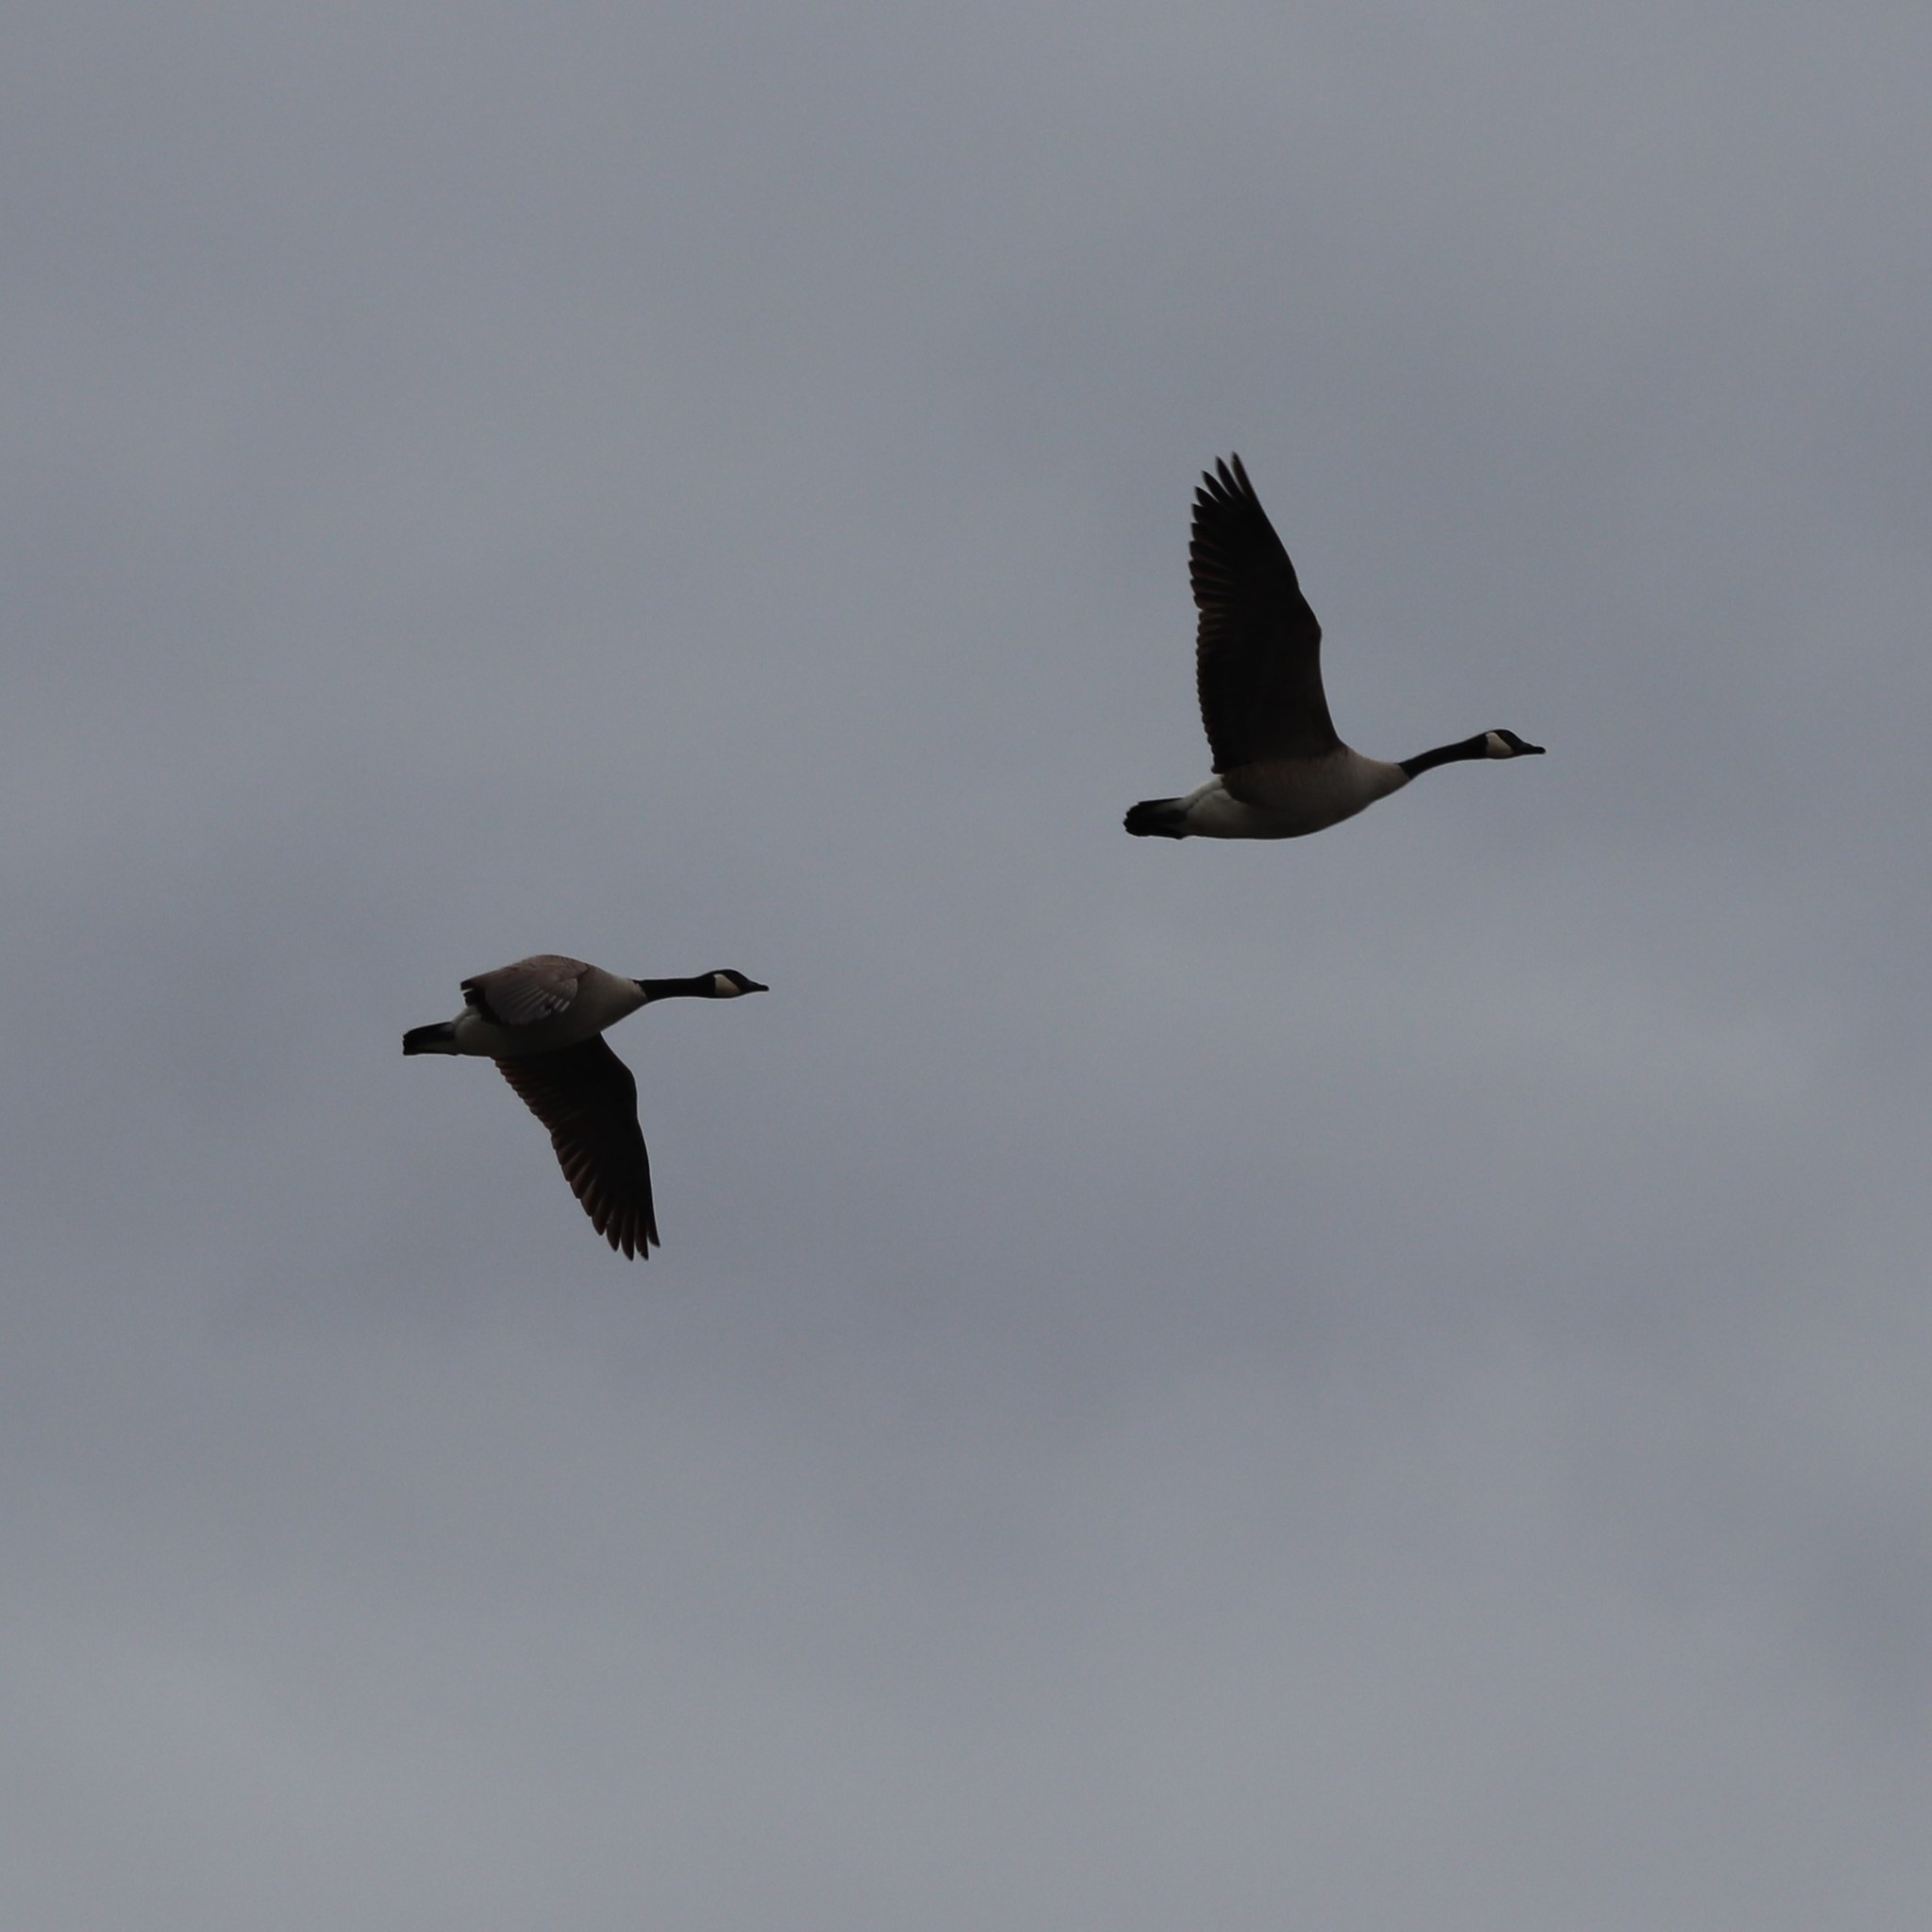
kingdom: Animalia
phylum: Chordata
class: Aves
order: Anseriformes
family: Anatidae
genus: Branta
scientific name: Branta canadensis
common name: Canada goose
